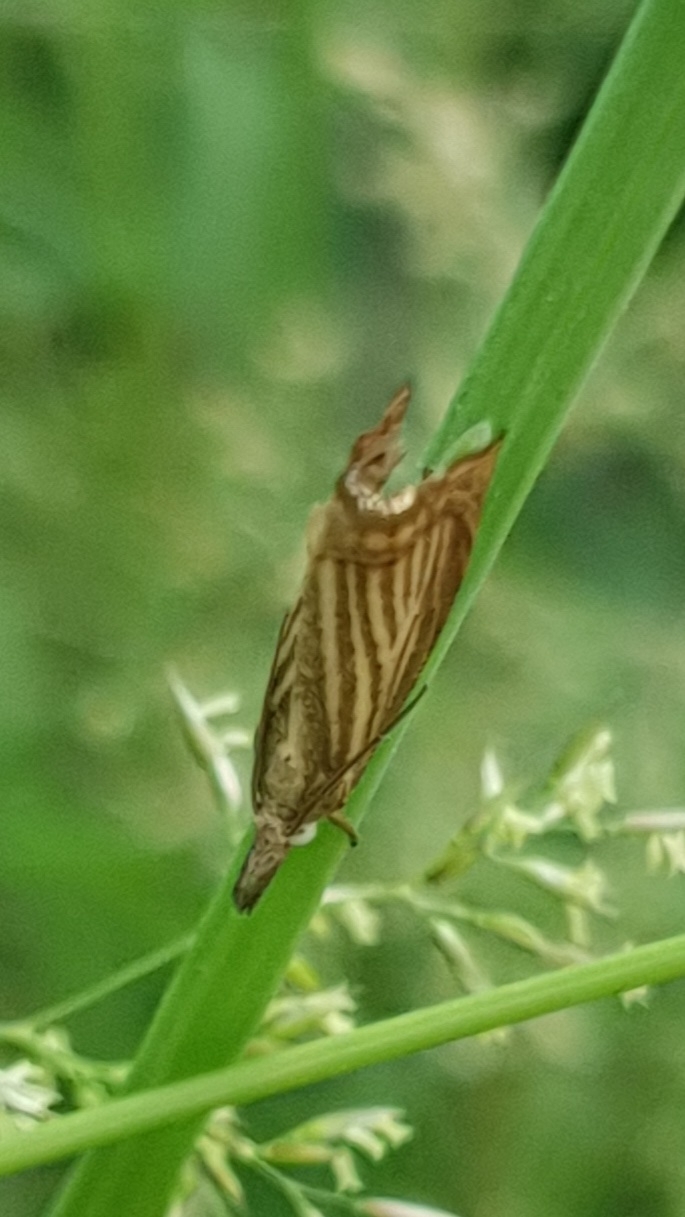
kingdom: Animalia
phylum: Arthropoda
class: Insecta
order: Lepidoptera
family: Crambidae
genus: Chrysoteuchia
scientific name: Chrysoteuchia culmella
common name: Garden grass-veneer
